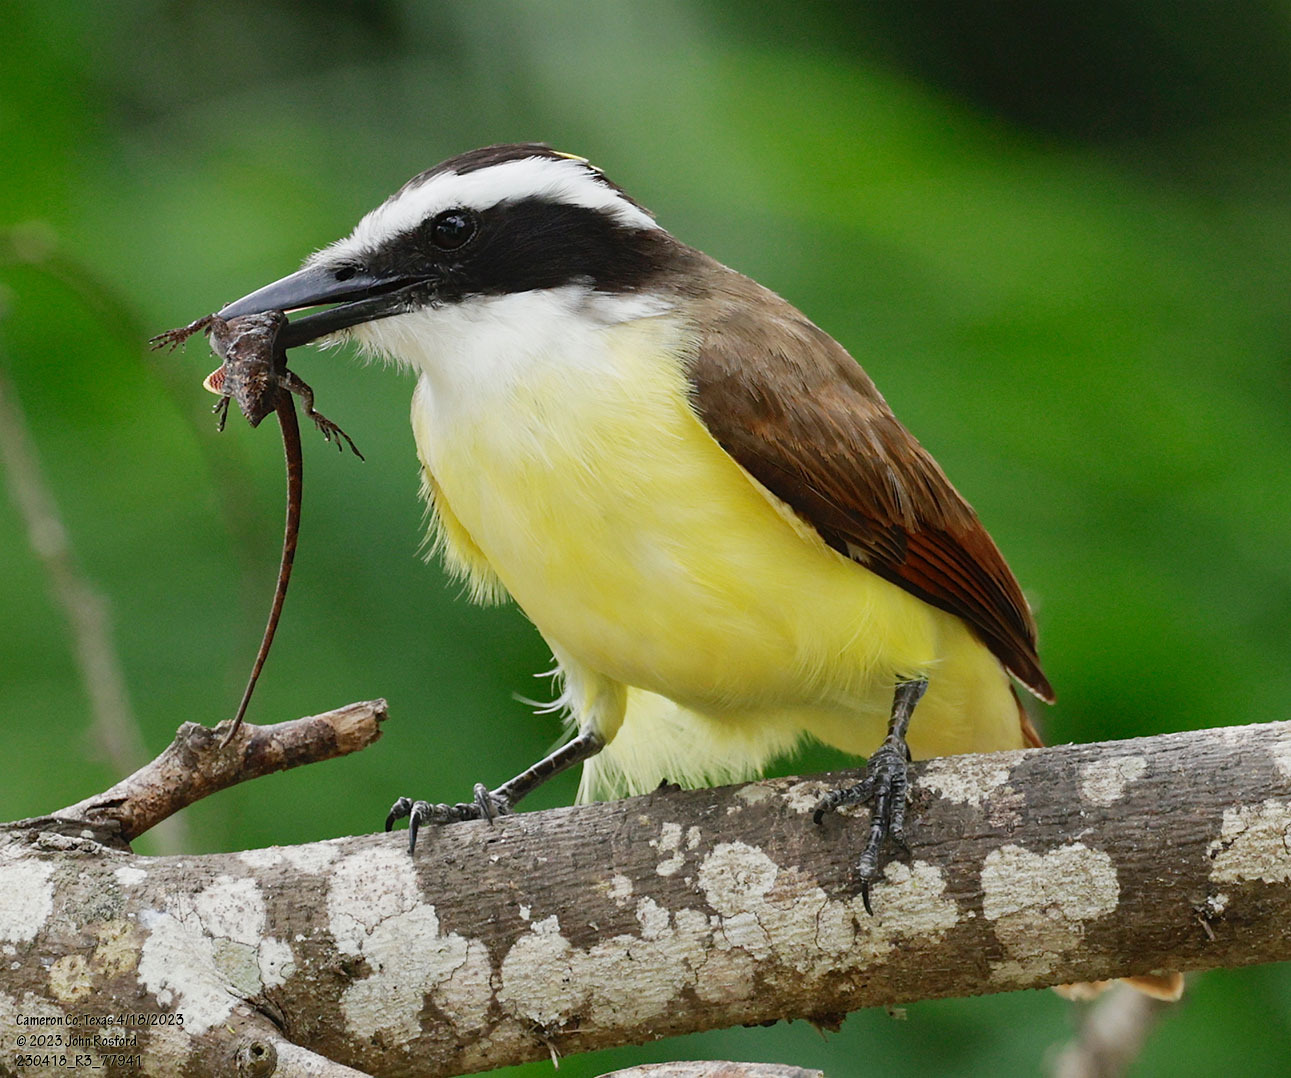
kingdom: Animalia
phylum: Chordata
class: Aves
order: Passeriformes
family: Tyrannidae
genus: Pitangus
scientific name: Pitangus sulphuratus
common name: Great kiskadee
